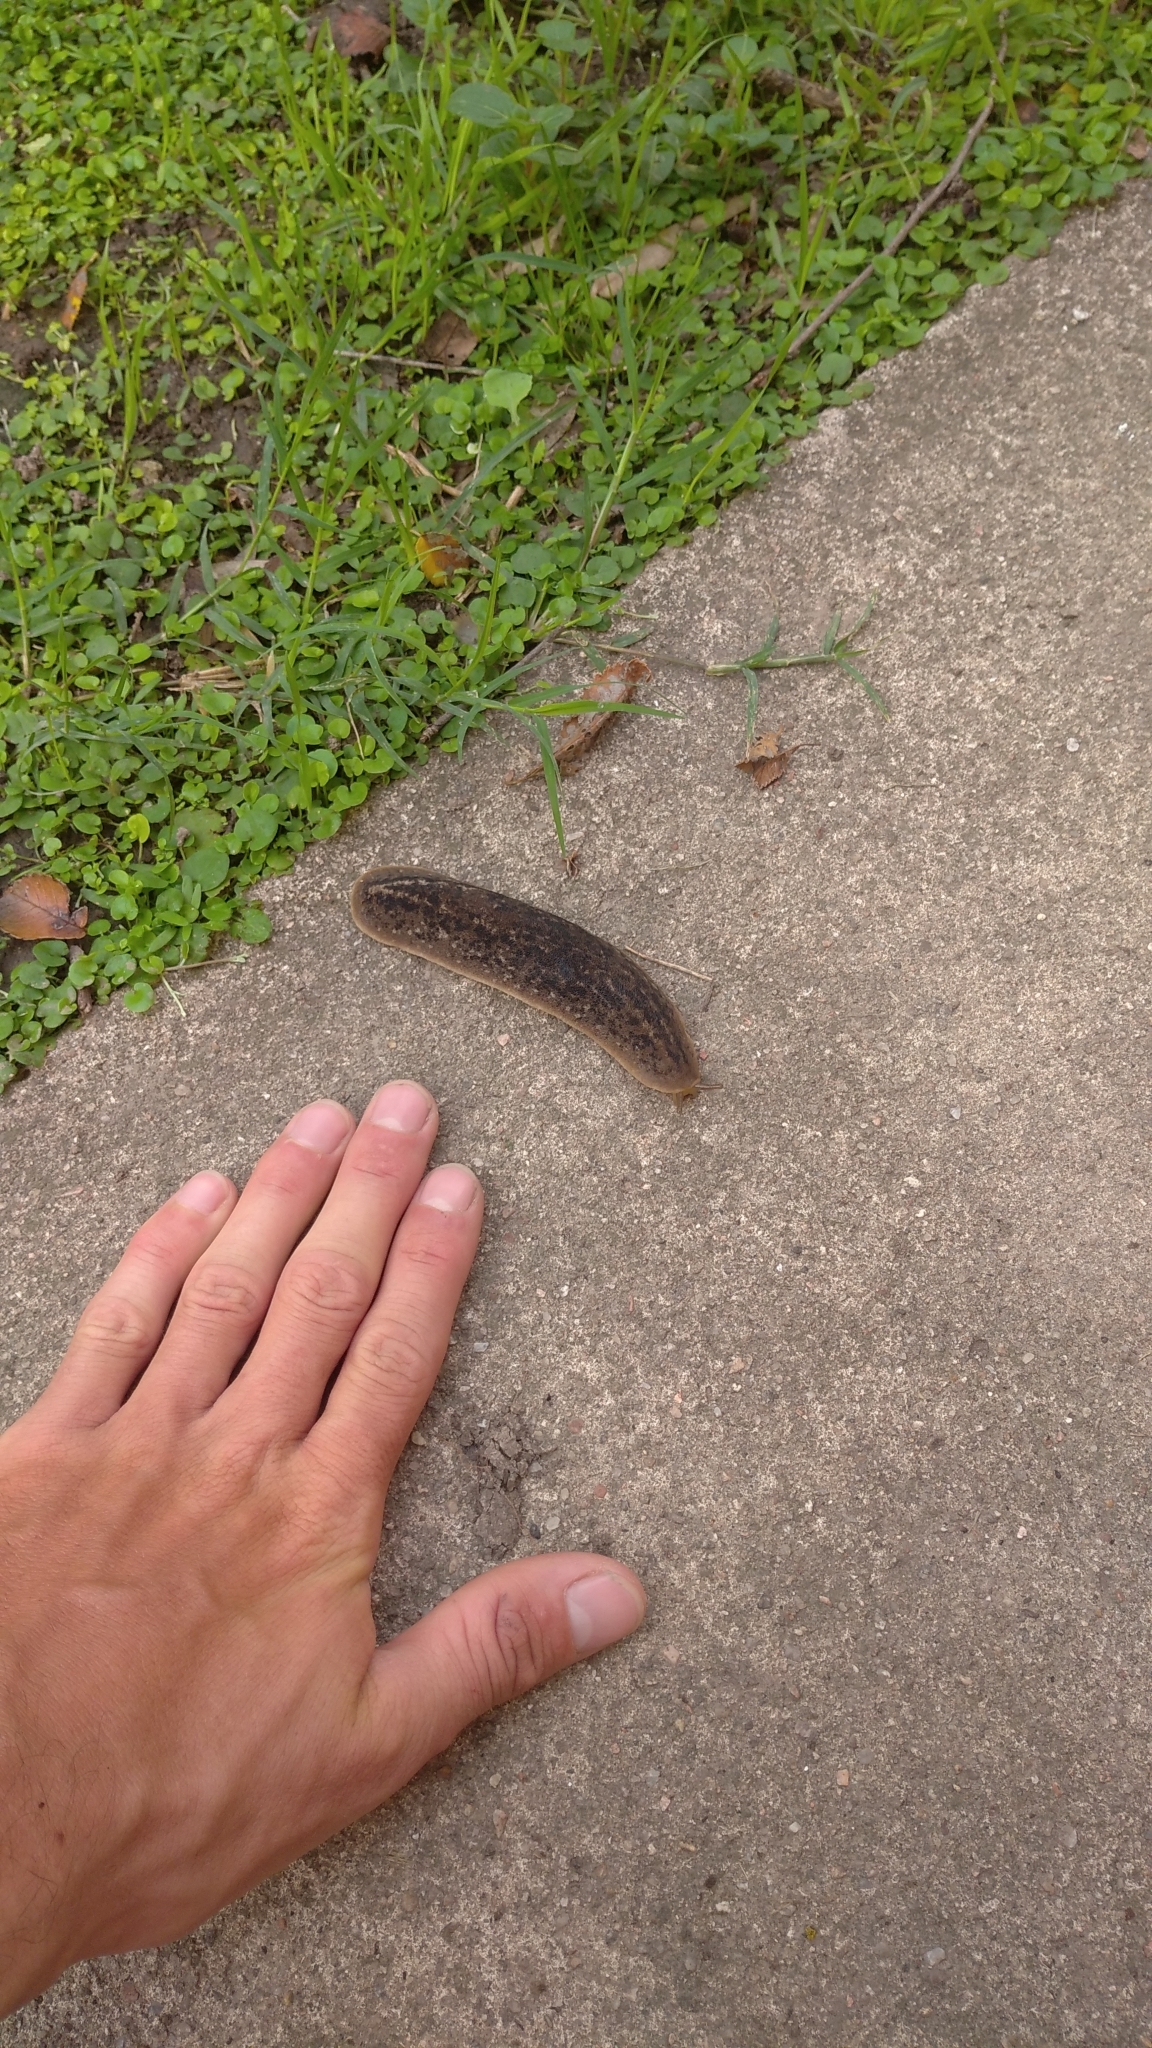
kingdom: Animalia
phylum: Mollusca
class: Gastropoda
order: Systellommatophora
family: Veronicellidae
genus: Phyllocaulis
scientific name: Phyllocaulis soleiformis
